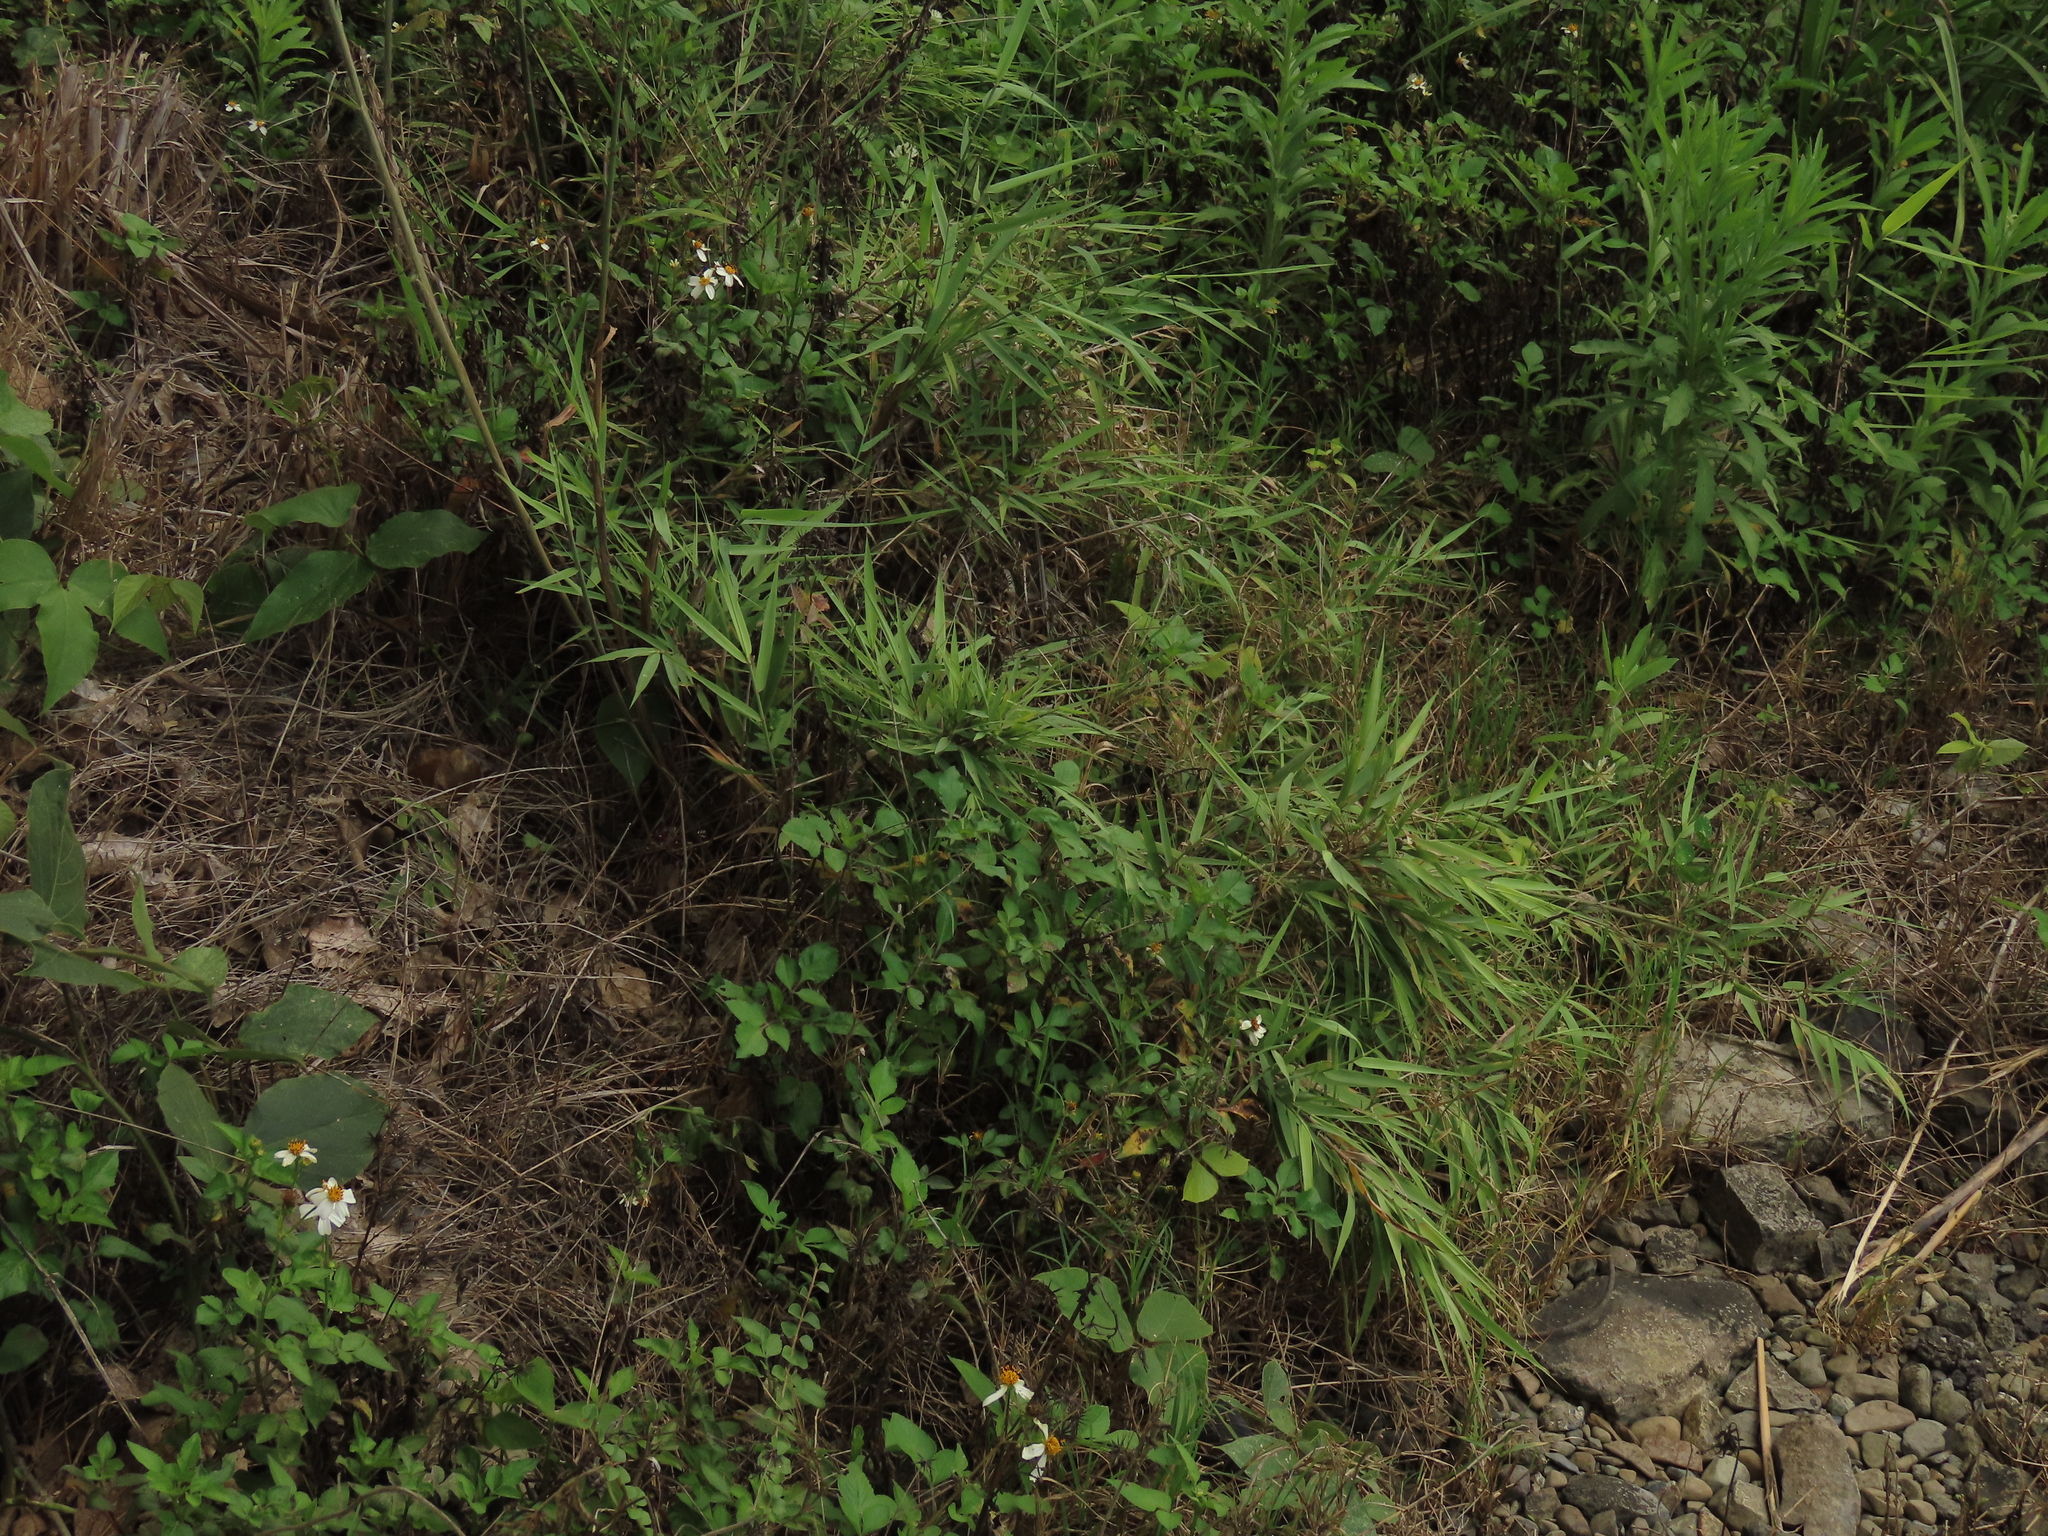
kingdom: Plantae
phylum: Tracheophyta
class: Liliopsida
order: Poales
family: Poaceae
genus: Arundo
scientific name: Arundo formosana
